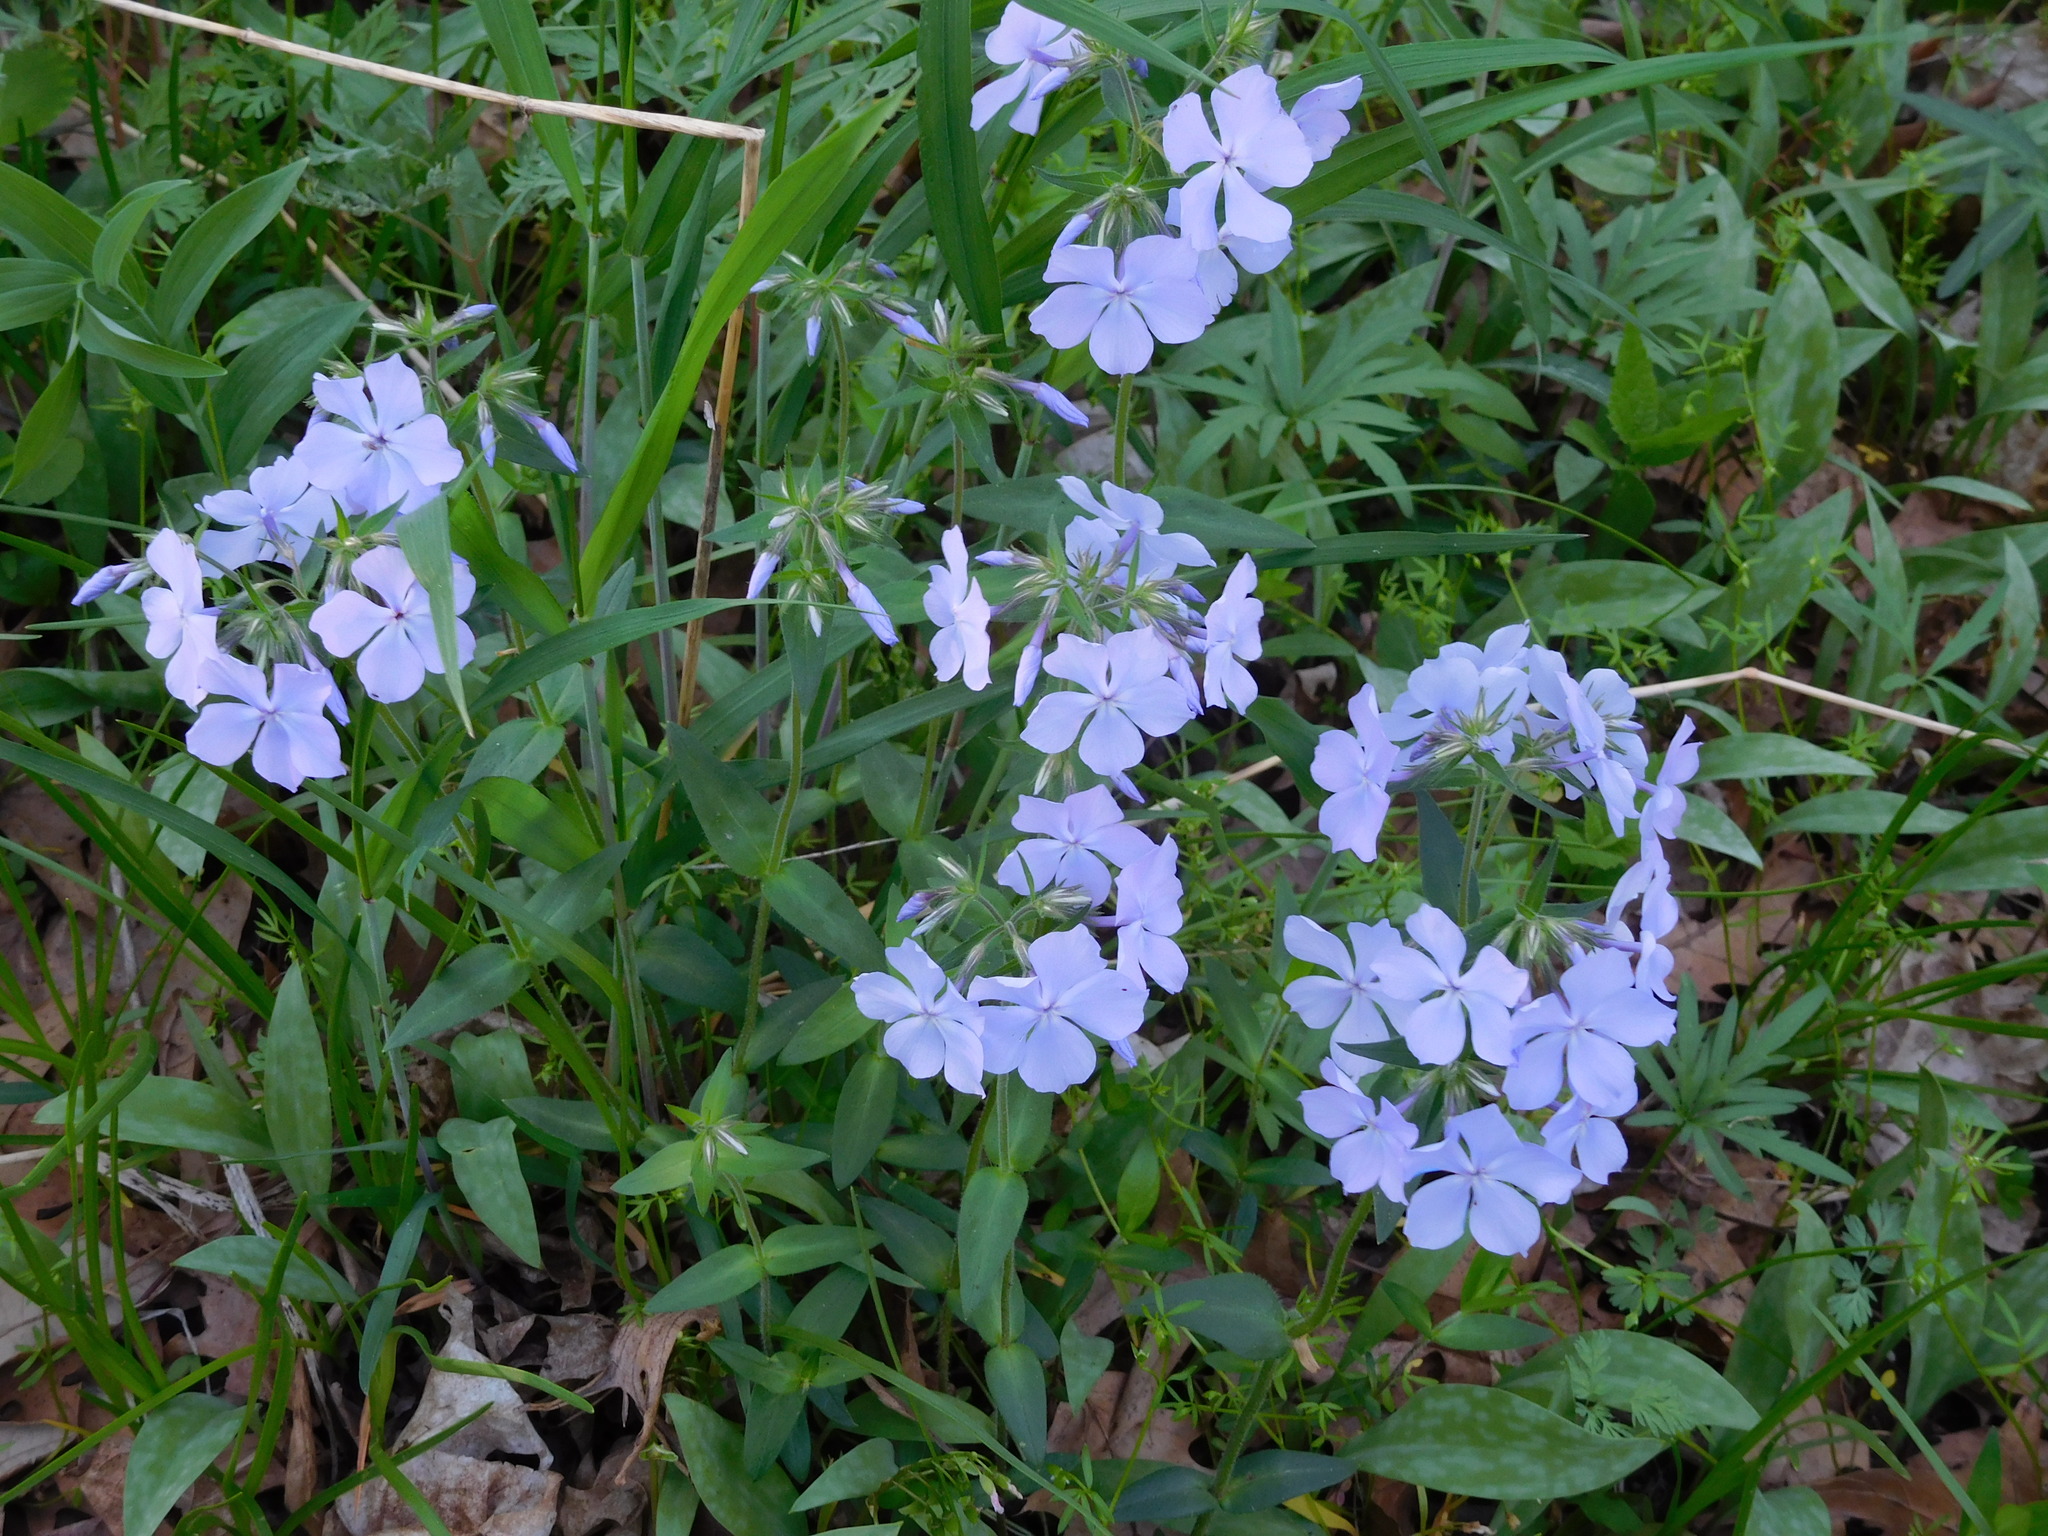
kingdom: Plantae
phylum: Tracheophyta
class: Magnoliopsida
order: Ericales
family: Polemoniaceae
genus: Phlox
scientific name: Phlox divaricata
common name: Blue phlox
